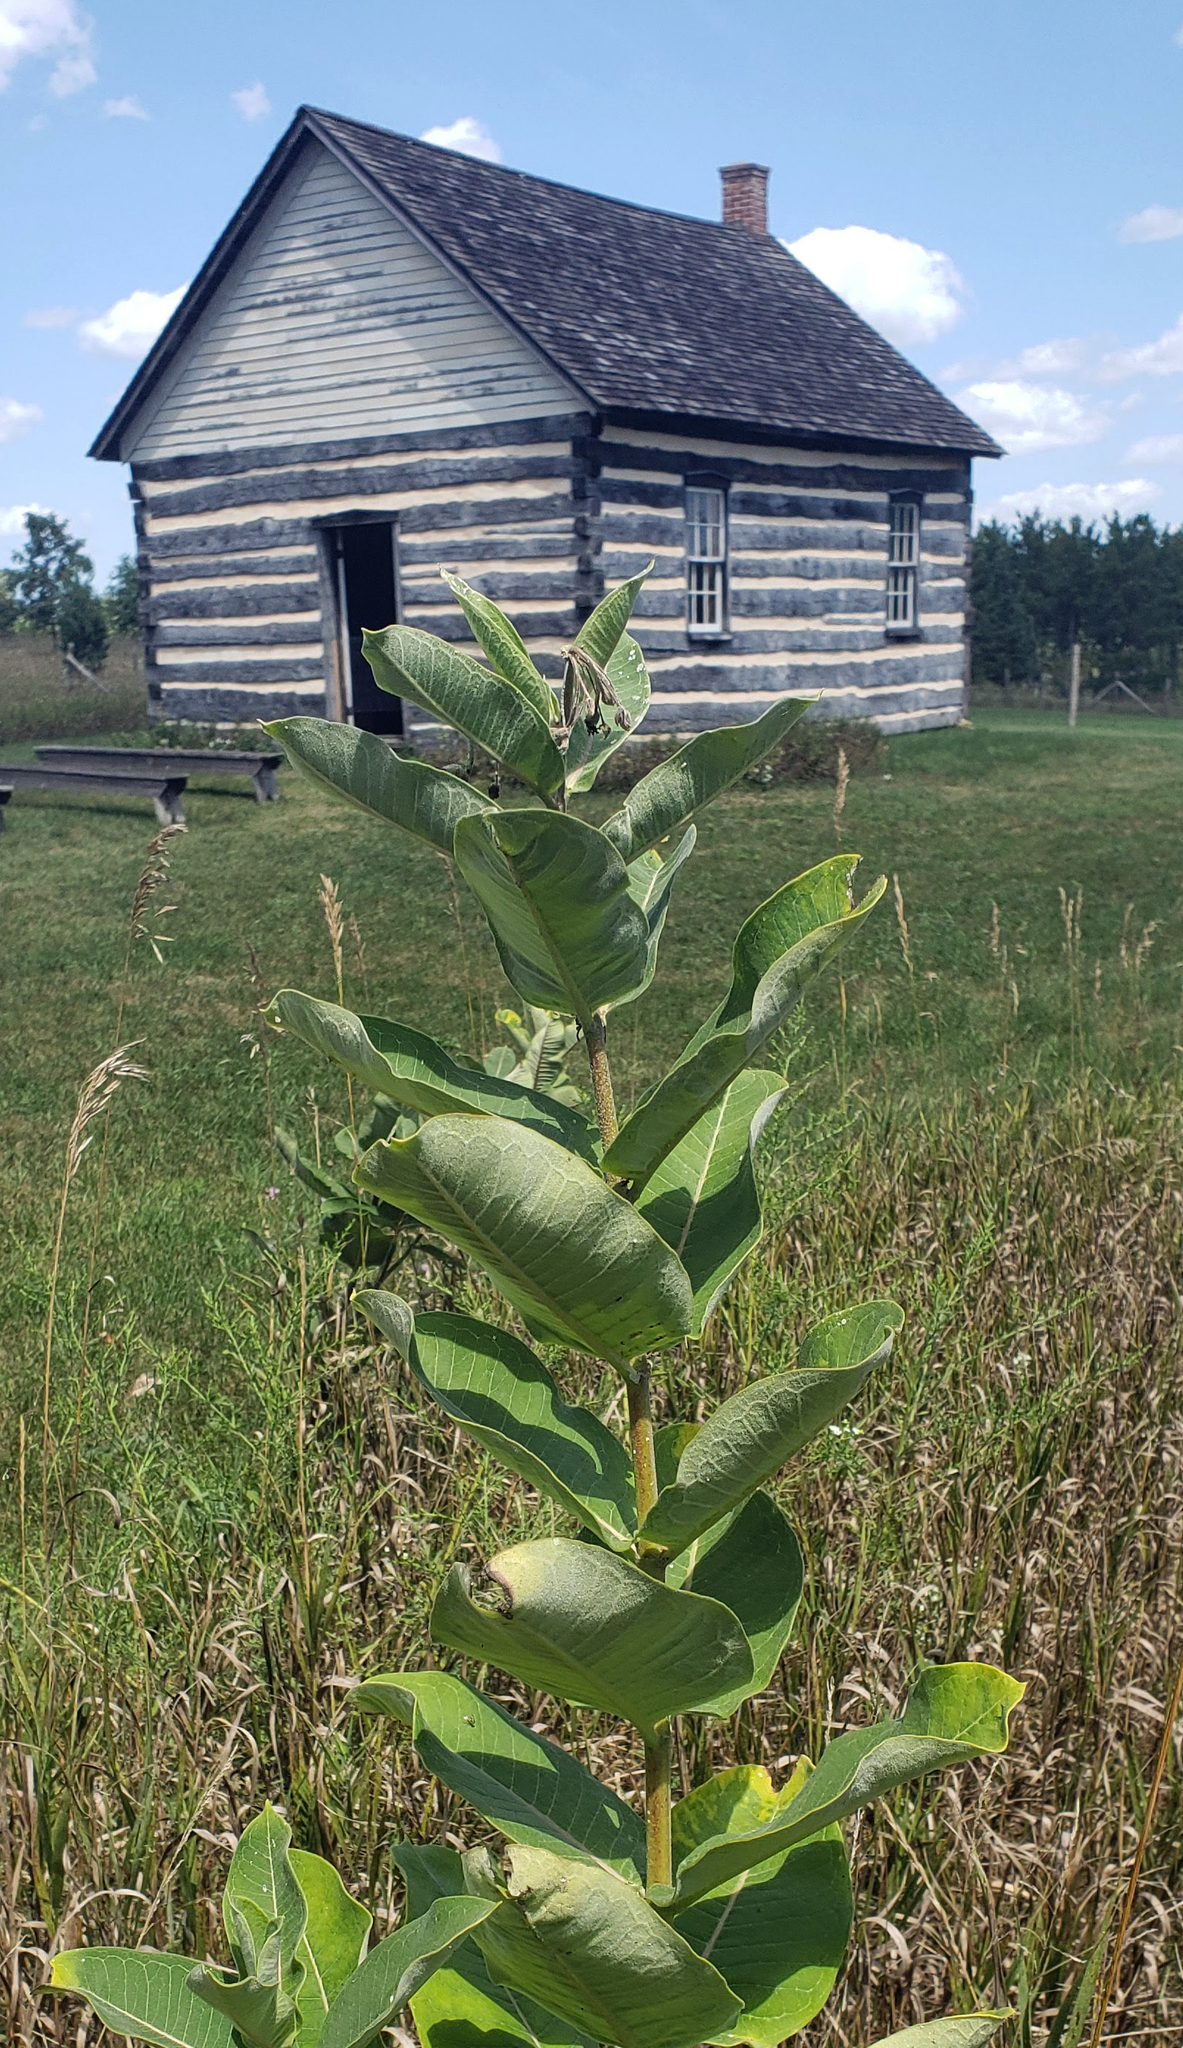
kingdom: Plantae
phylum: Tracheophyta
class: Magnoliopsida
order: Gentianales
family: Apocynaceae
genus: Asclepias
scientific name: Asclepias syriaca
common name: Common milkweed
